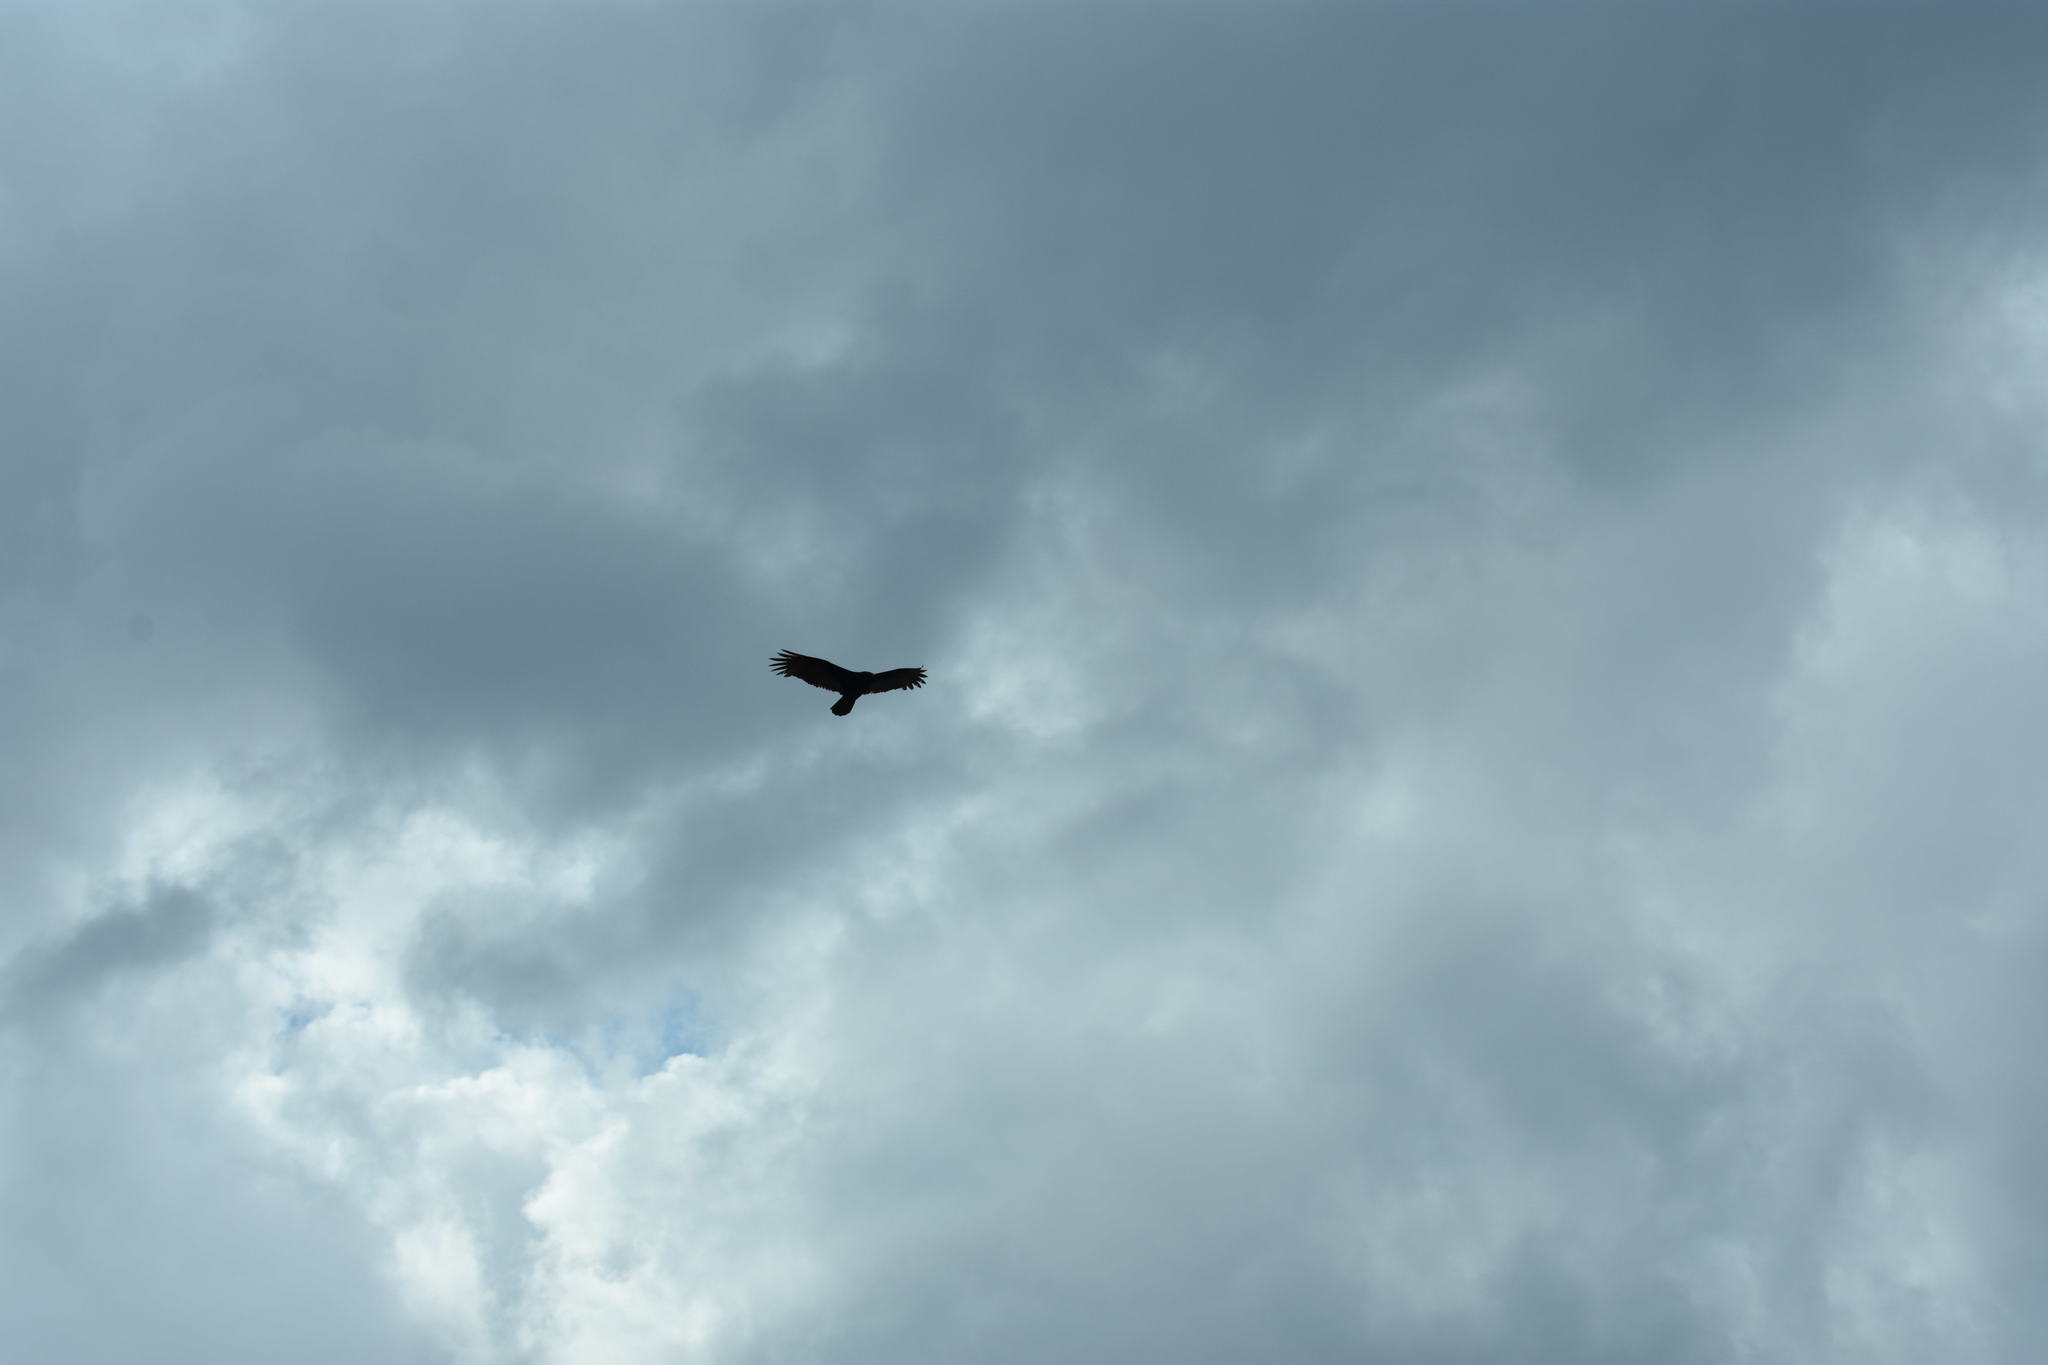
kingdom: Animalia
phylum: Chordata
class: Aves
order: Accipitriformes
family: Cathartidae
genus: Cathartes
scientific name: Cathartes aura
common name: Turkey vulture
